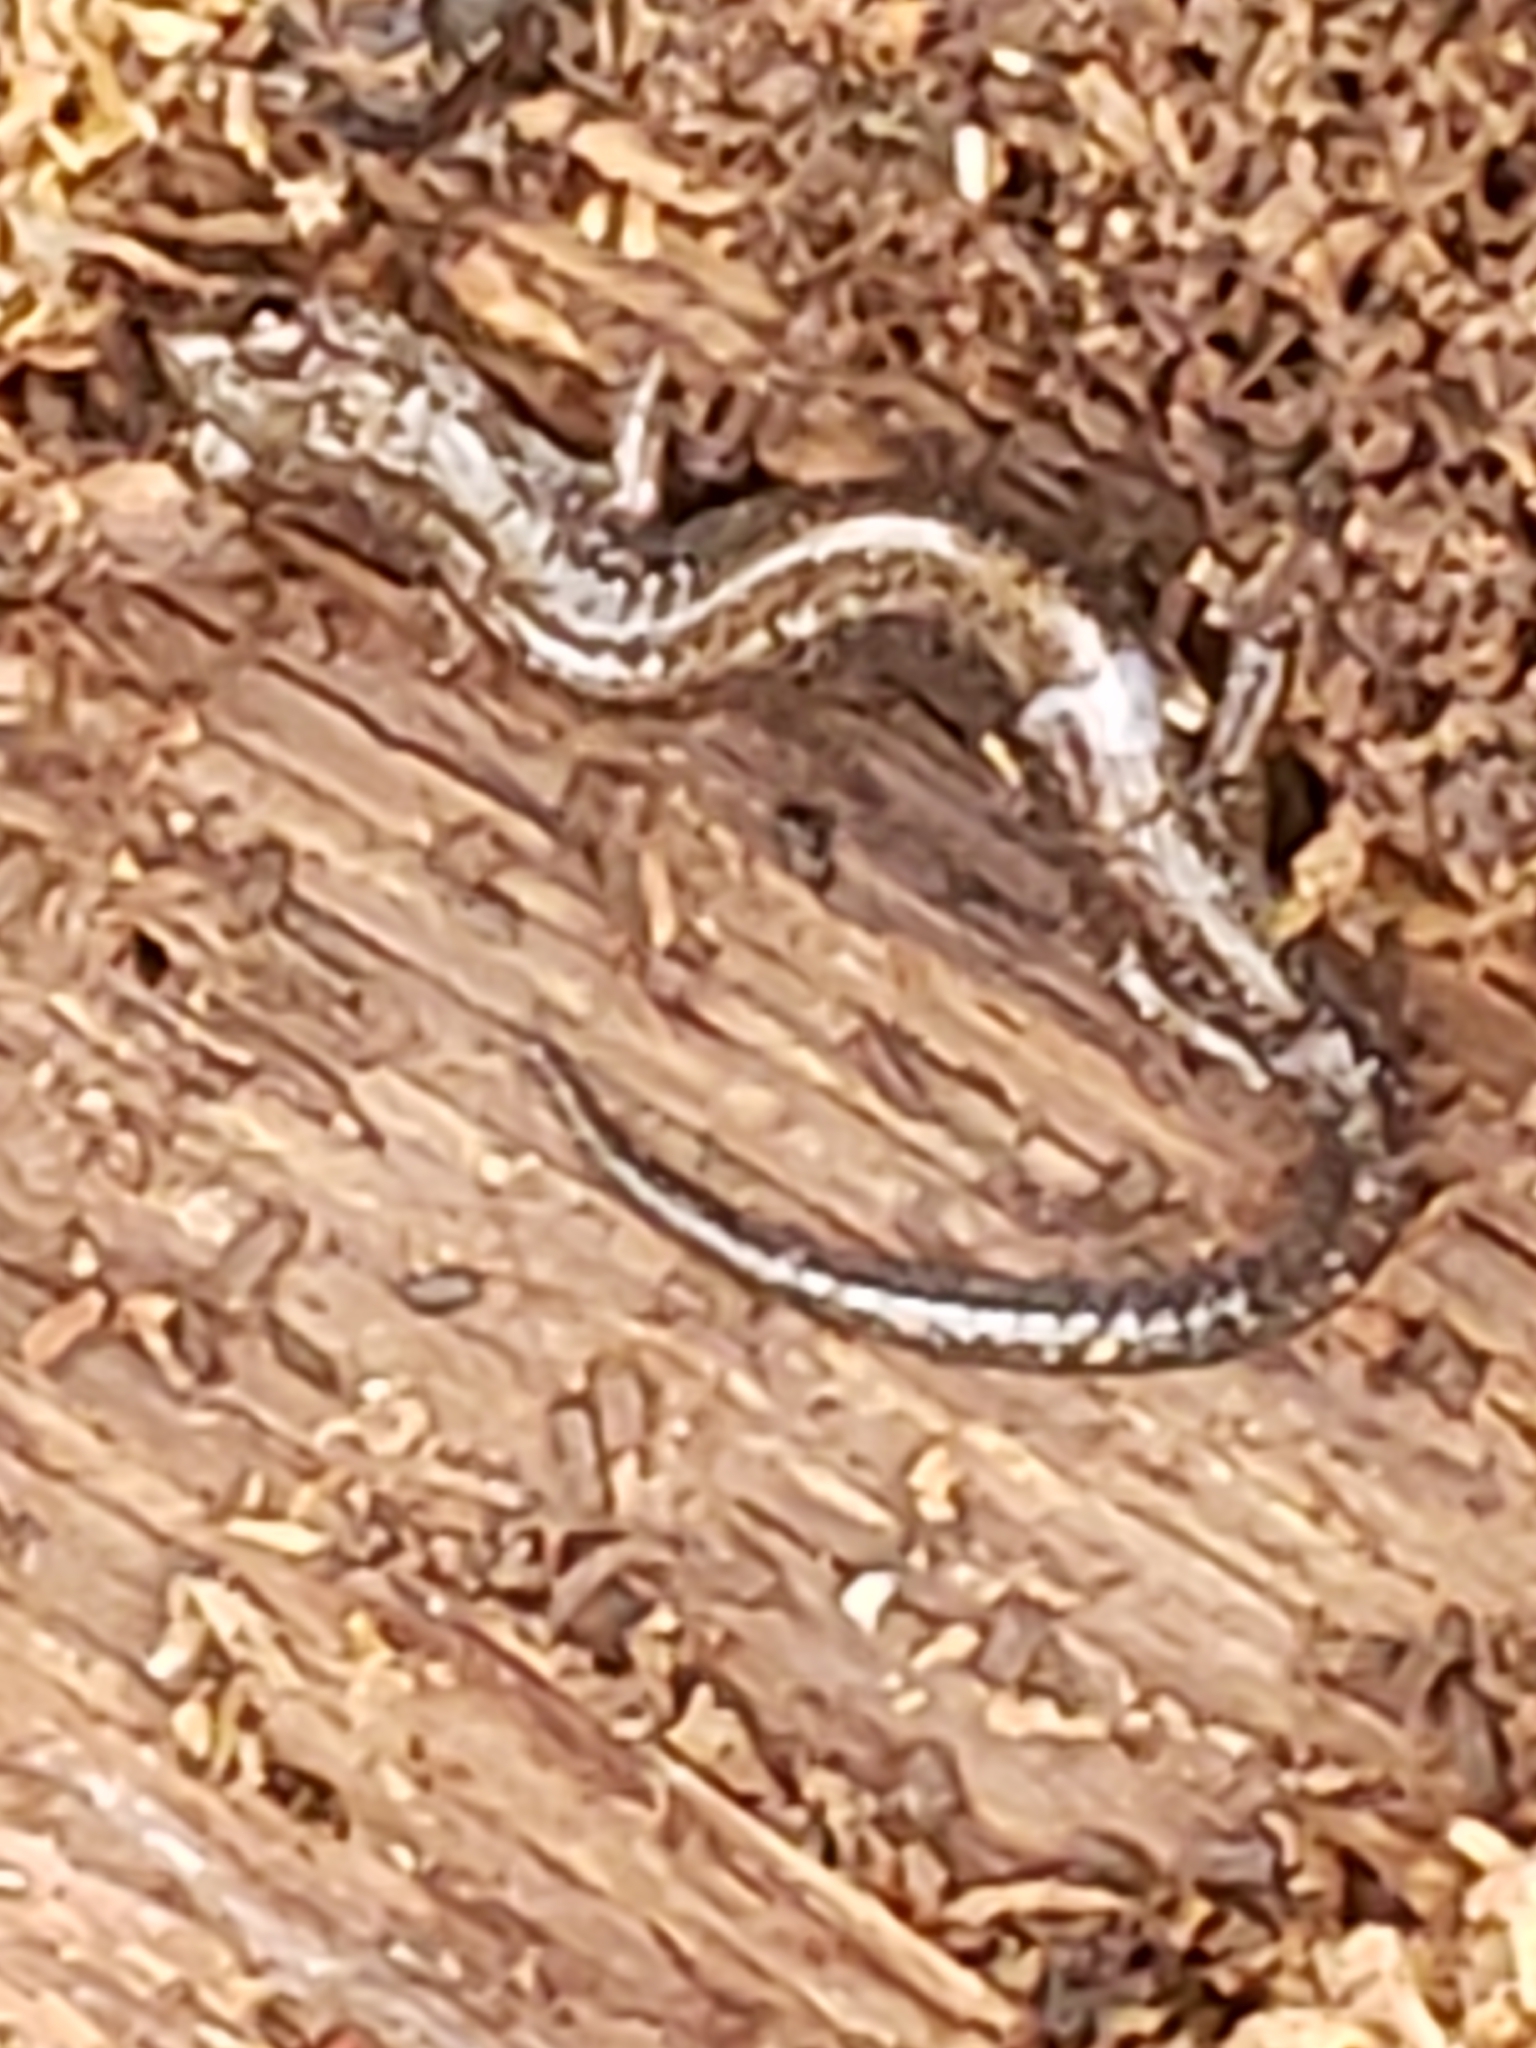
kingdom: Animalia
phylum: Chordata
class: Amphibia
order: Caudata
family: Plethodontidae
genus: Plethodon
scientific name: Plethodon cinereus
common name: Redback salamander
